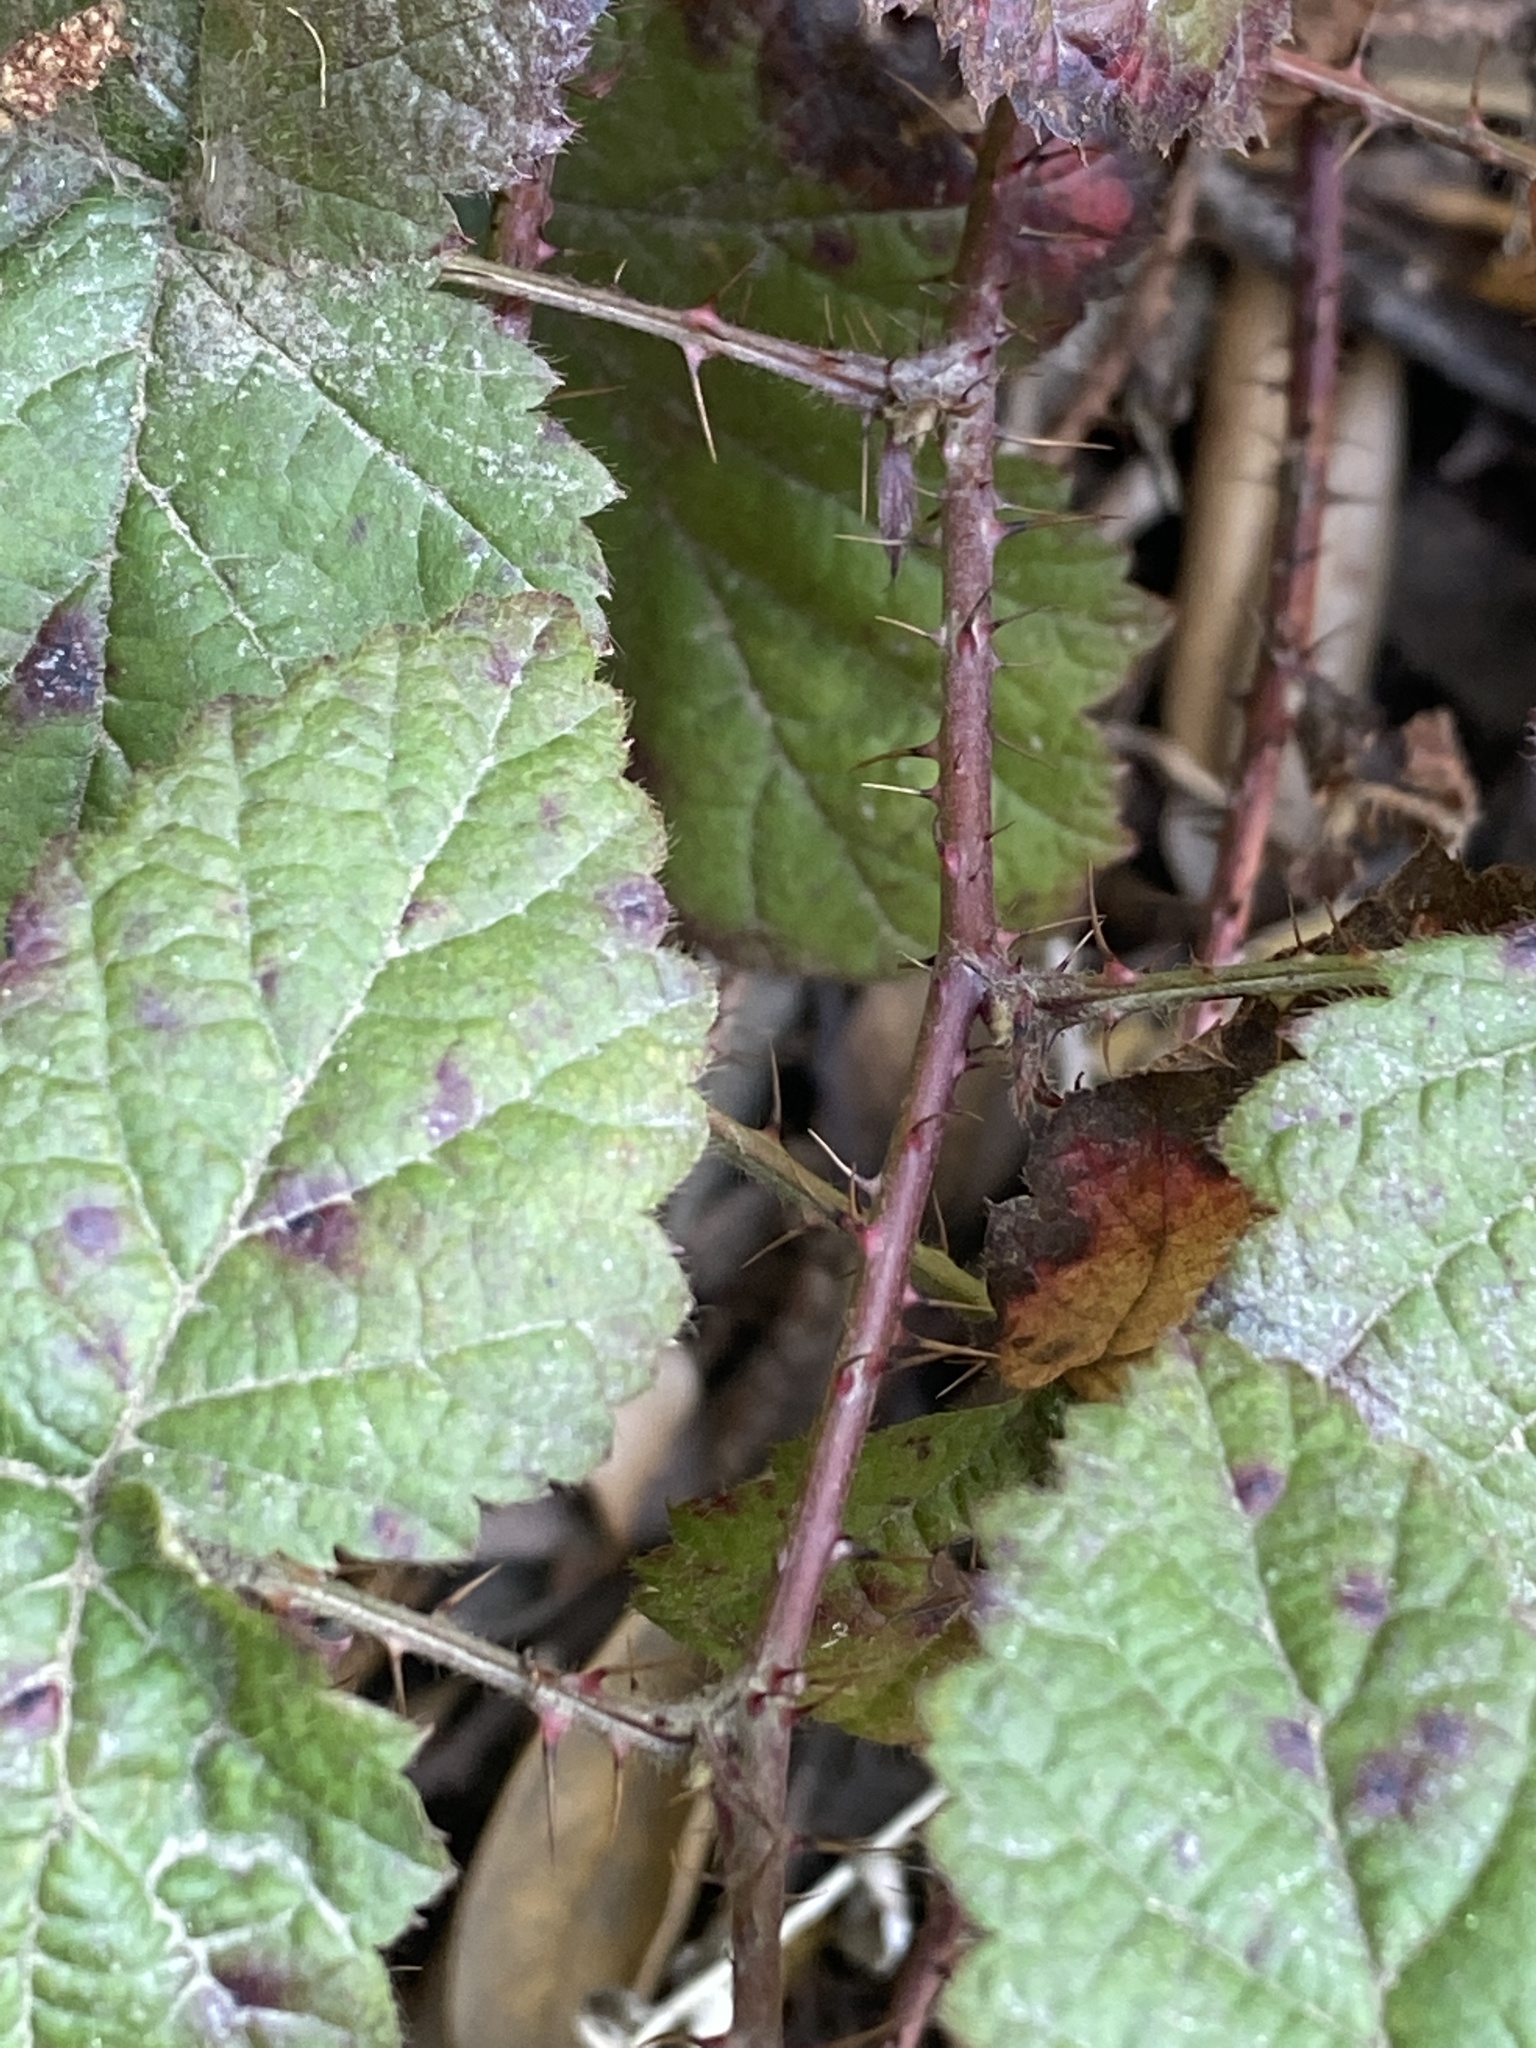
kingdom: Plantae
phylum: Tracheophyta
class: Magnoliopsida
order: Rosales
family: Rosaceae
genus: Rubus
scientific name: Rubus ursinus
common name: Pacific blackberry
